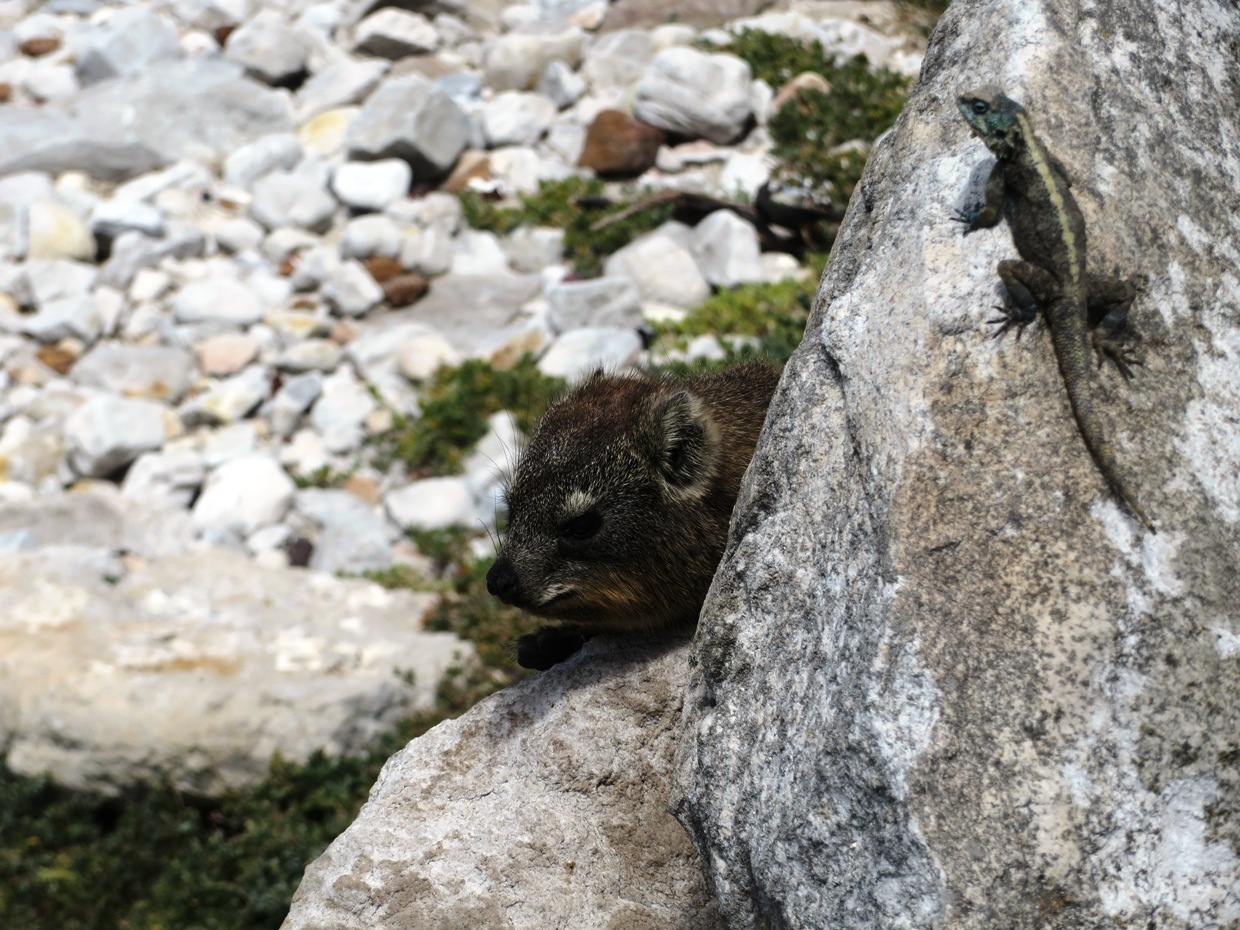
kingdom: Animalia
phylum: Chordata
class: Mammalia
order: Hyracoidea
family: Procaviidae
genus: Procavia
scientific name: Procavia capensis
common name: Rock hyrax
